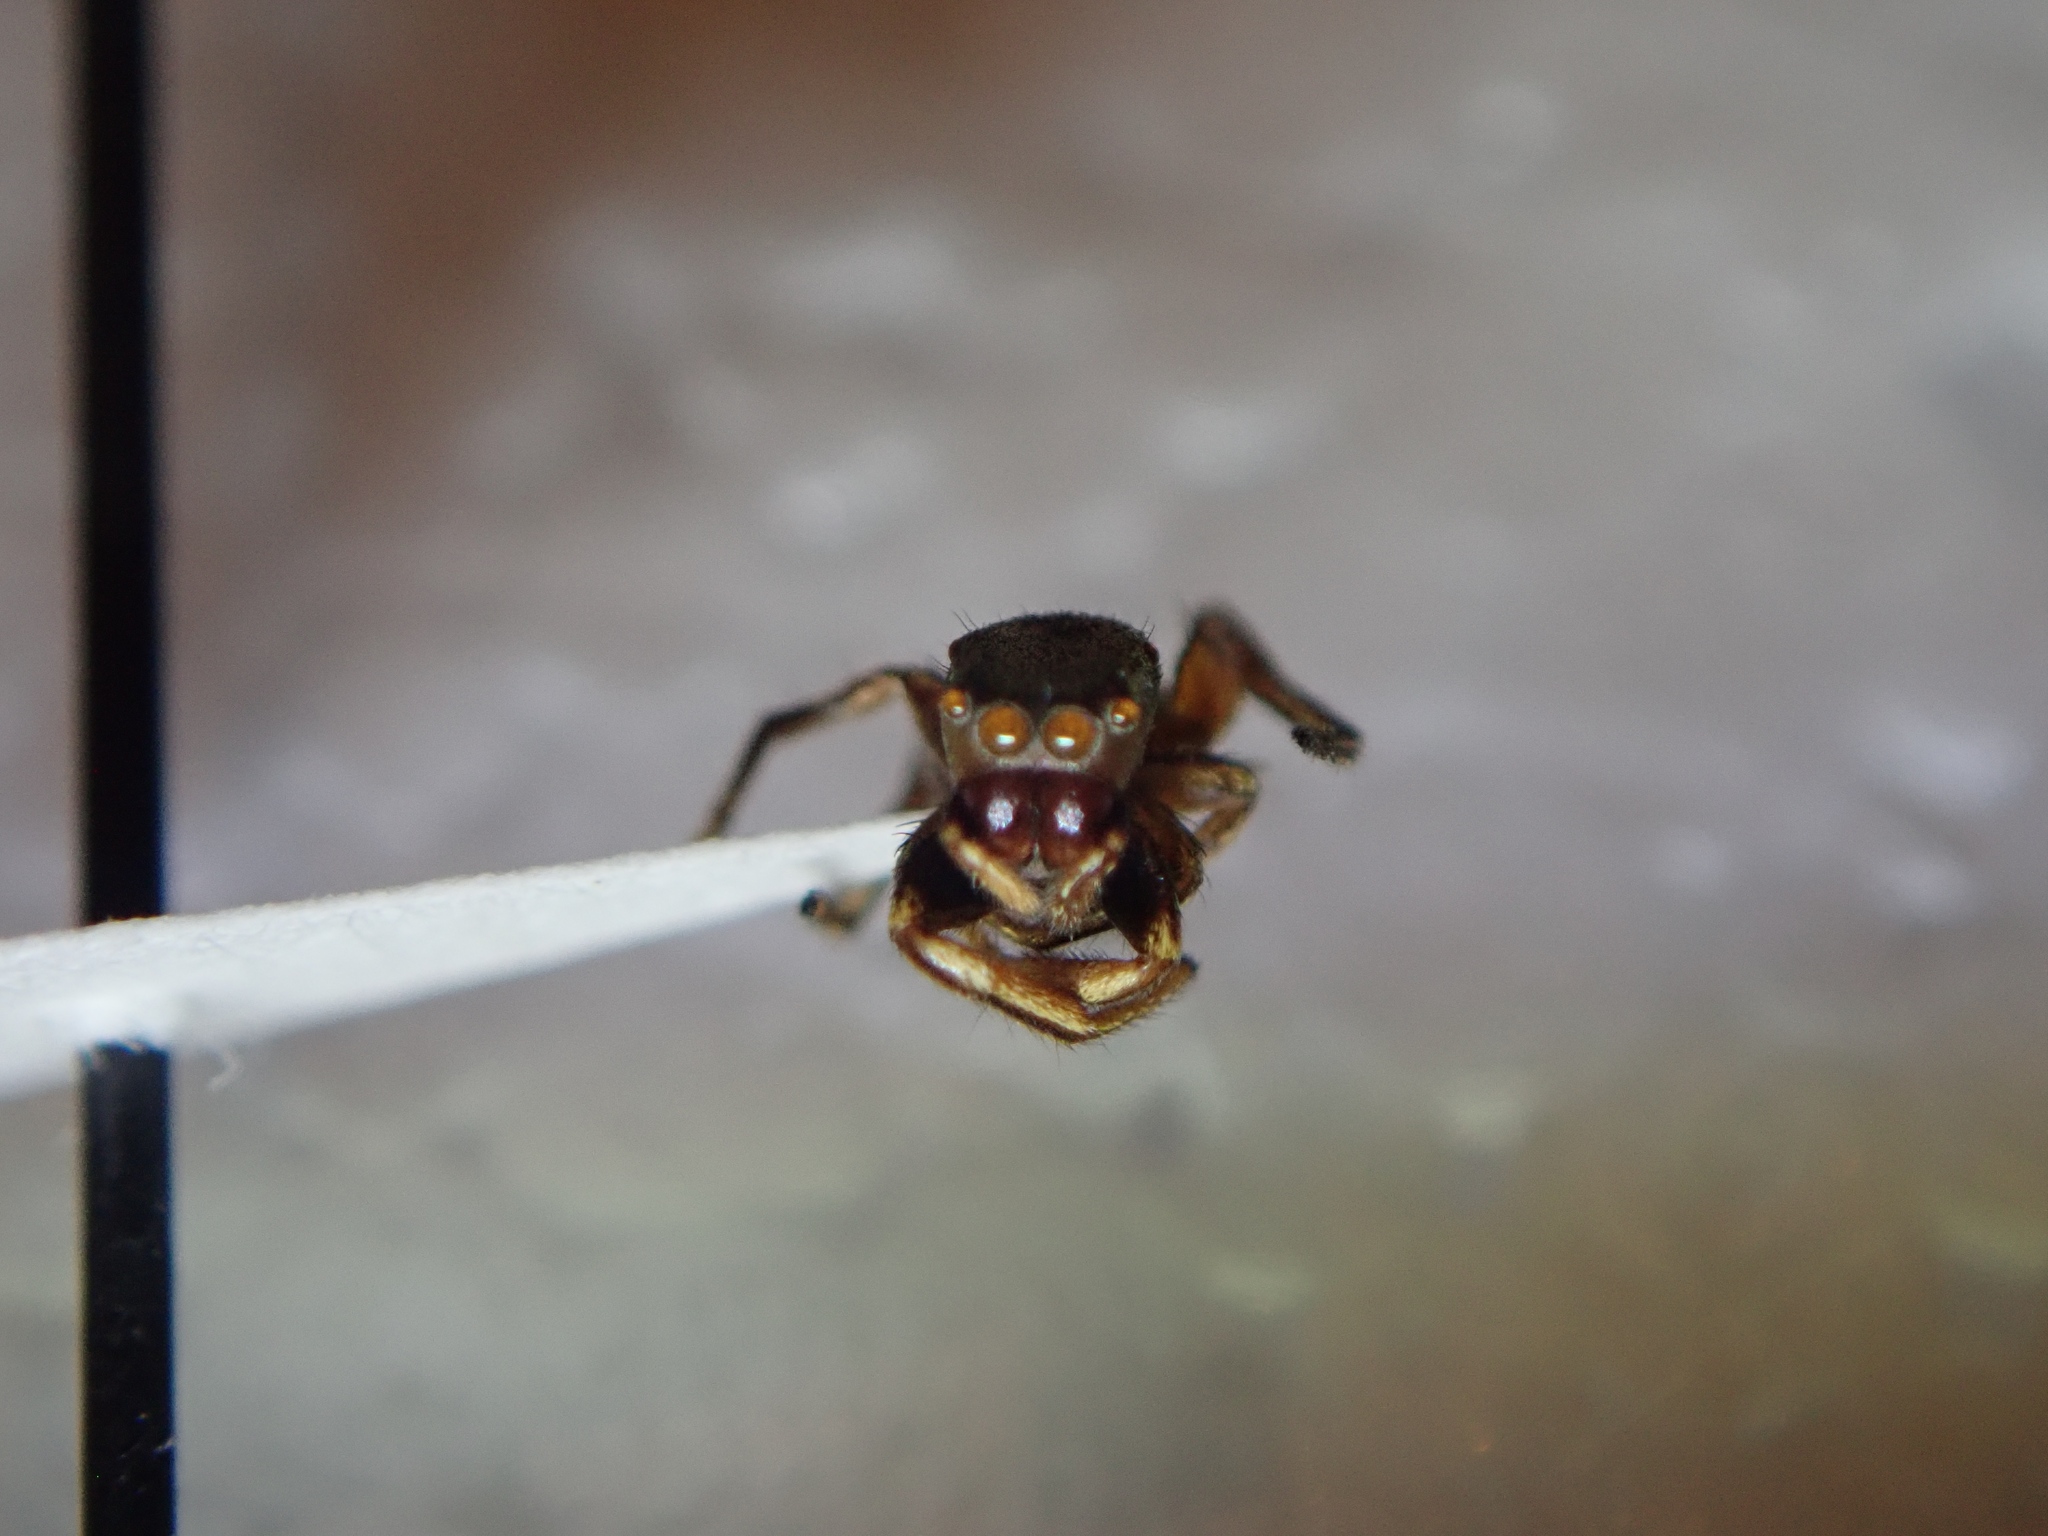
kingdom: Animalia
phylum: Arthropoda
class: Arachnida
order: Araneae
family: Salticidae
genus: Tutelina
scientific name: Tutelina elegans
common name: Thin-spined jumping spider
